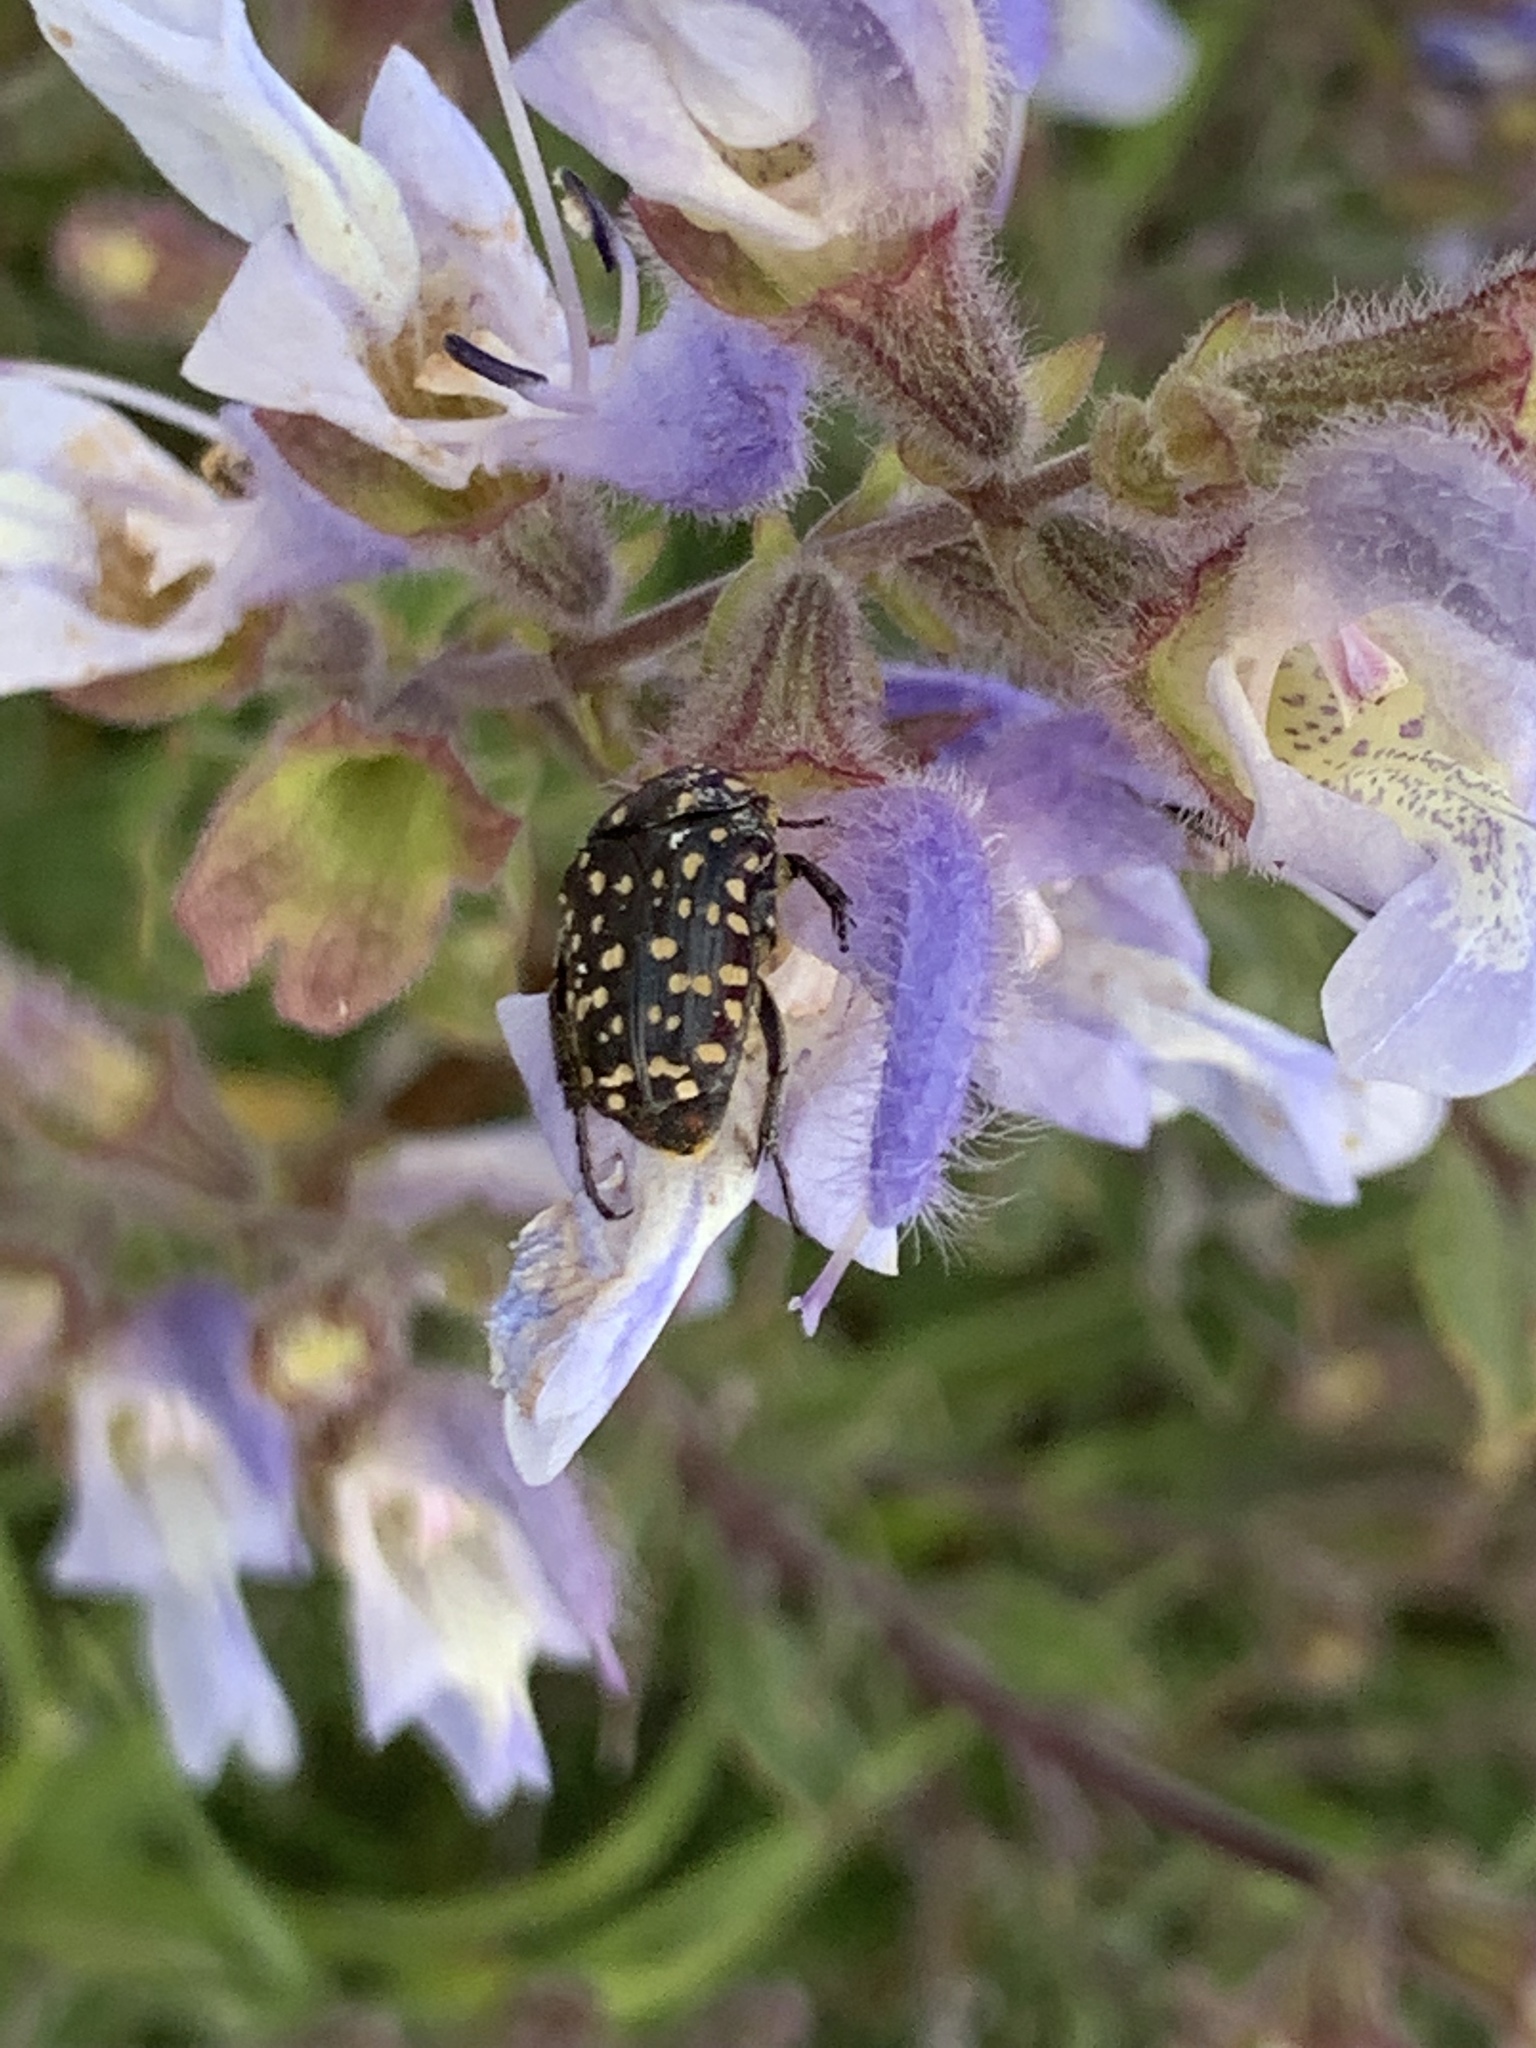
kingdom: Animalia
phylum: Arthropoda
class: Insecta
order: Coleoptera
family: Scarabaeidae
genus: Oxythyrea
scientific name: Oxythyrea
